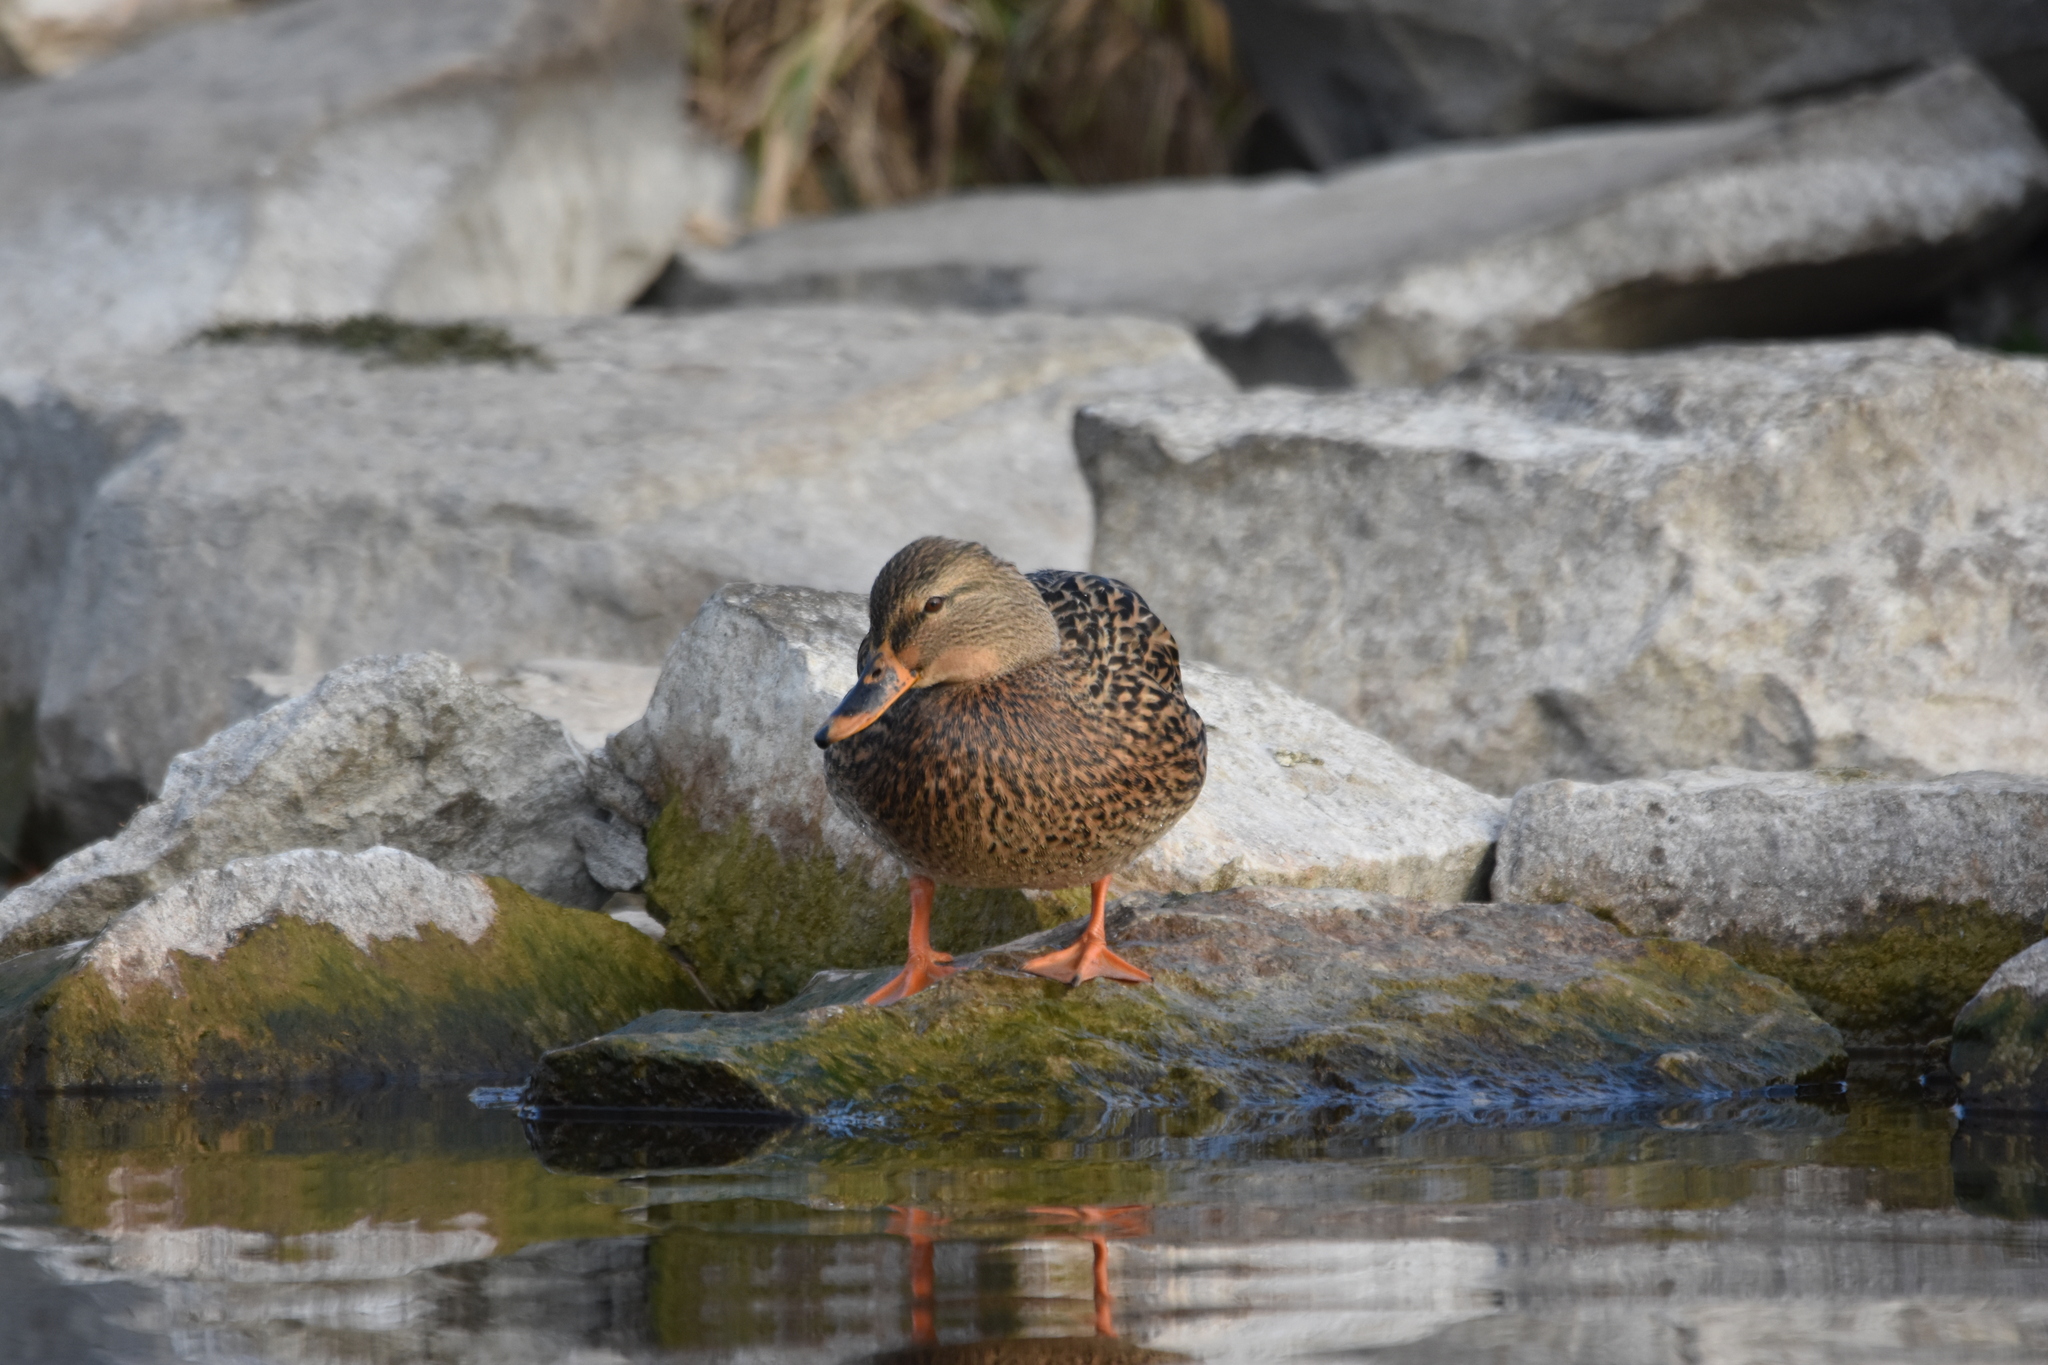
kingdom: Animalia
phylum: Chordata
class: Aves
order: Anseriformes
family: Anatidae
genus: Anas
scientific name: Anas platyrhynchos
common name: Mallard
